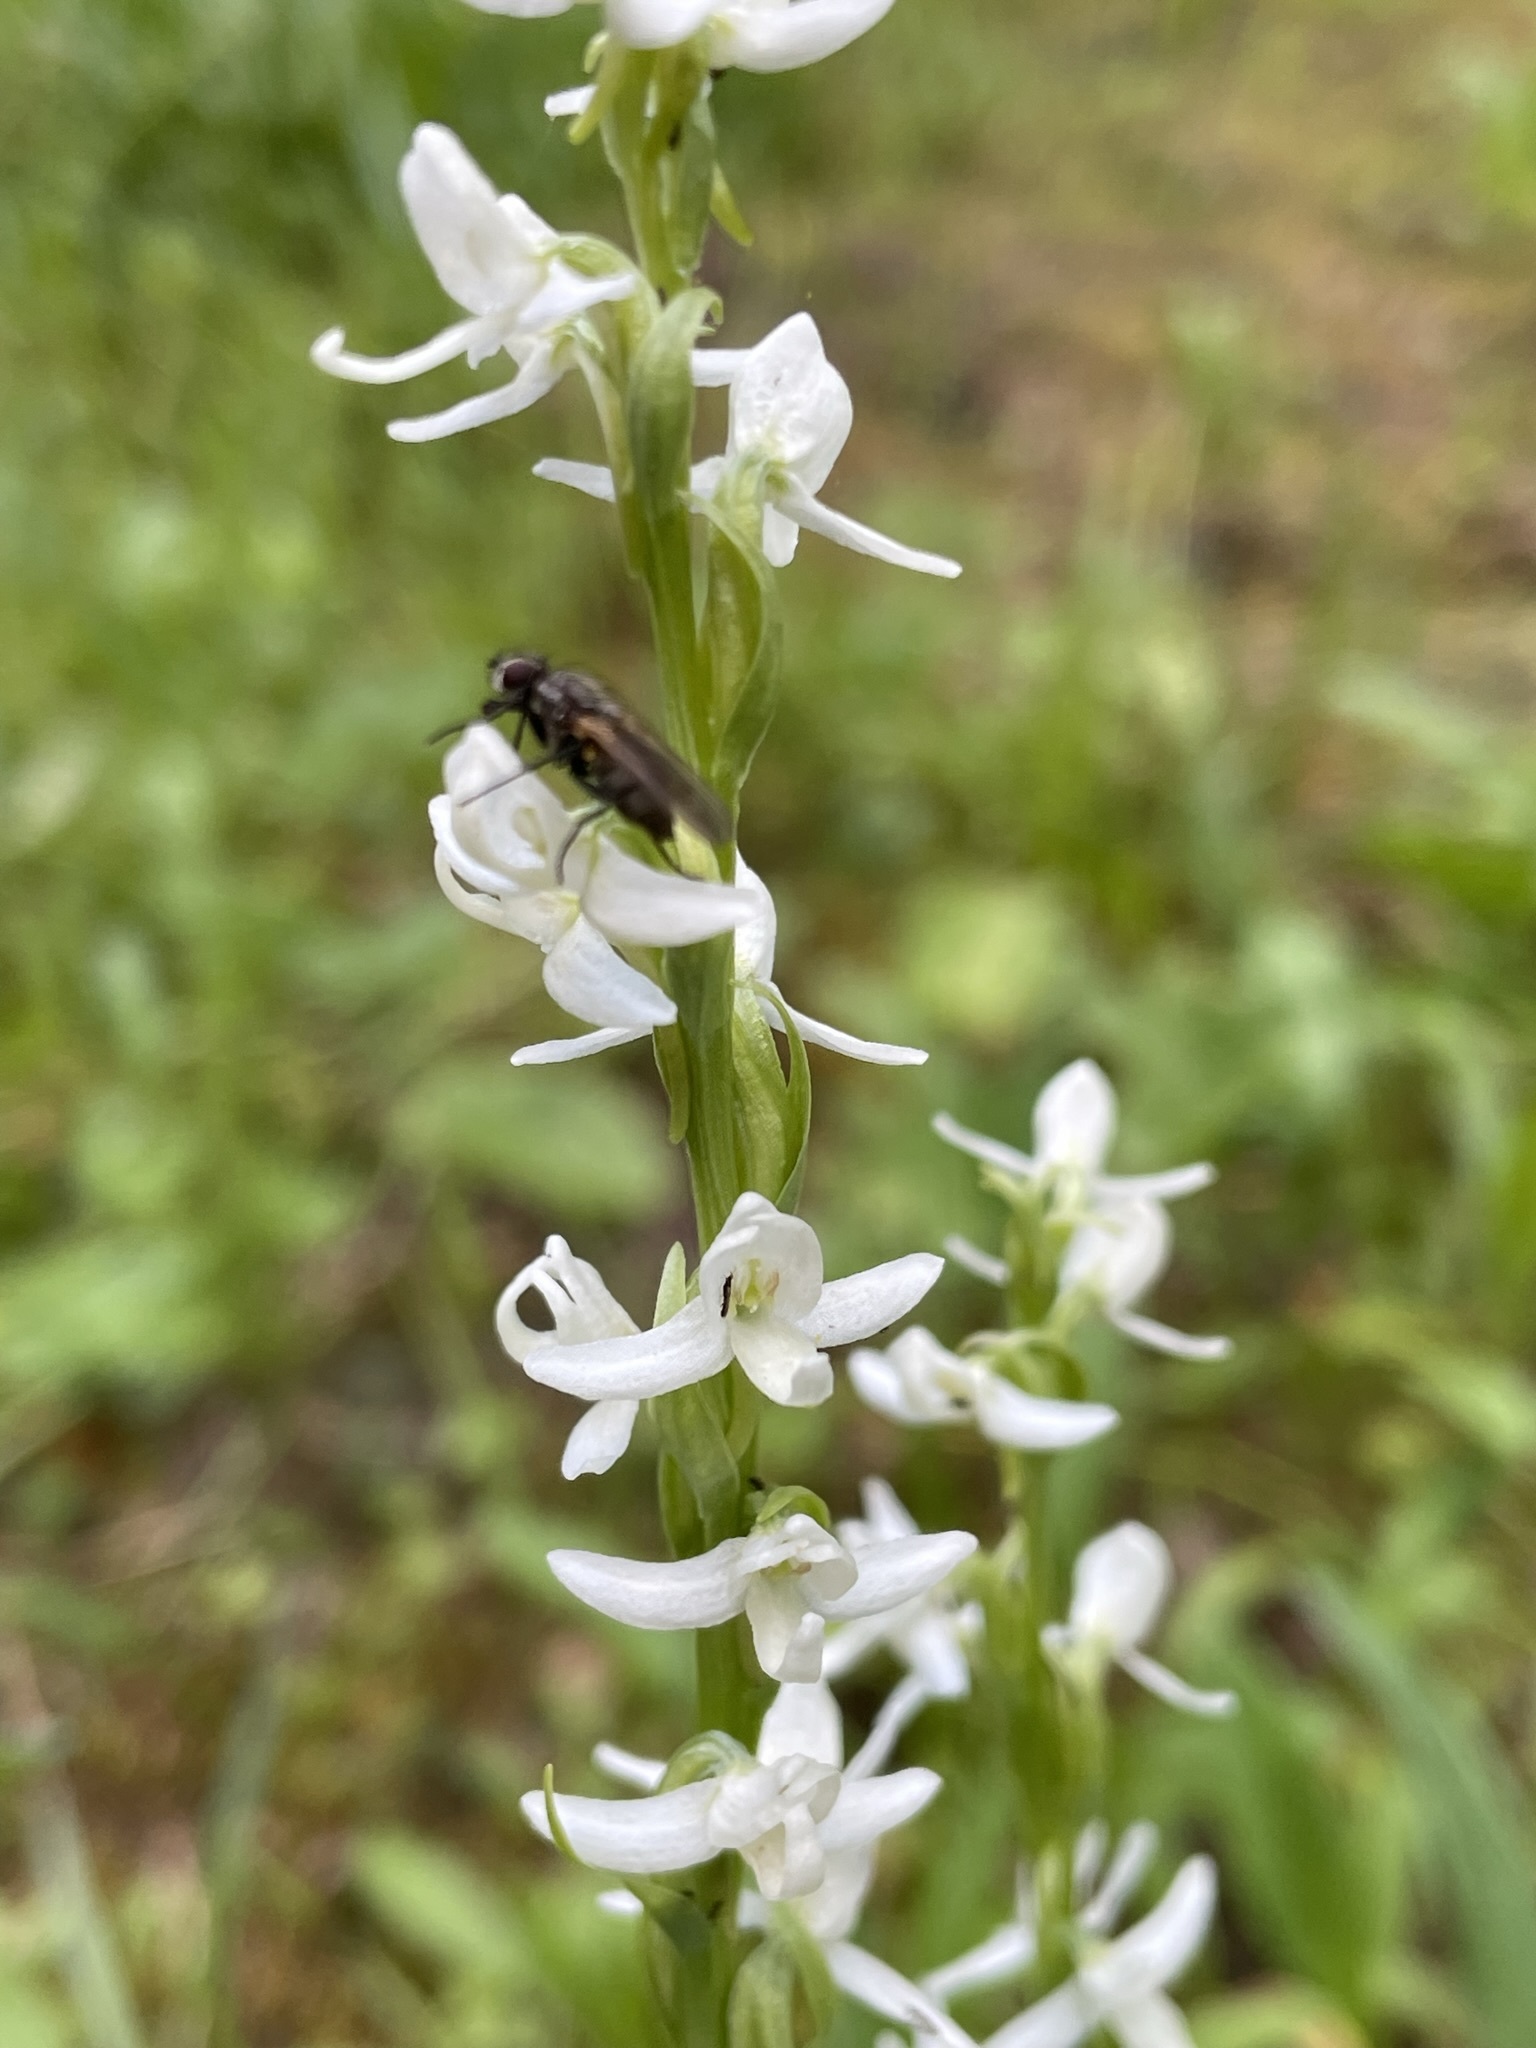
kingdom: Plantae
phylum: Tracheophyta
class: Liliopsida
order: Asparagales
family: Orchidaceae
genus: Platanthera
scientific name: Platanthera dilatata
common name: Bog candles
